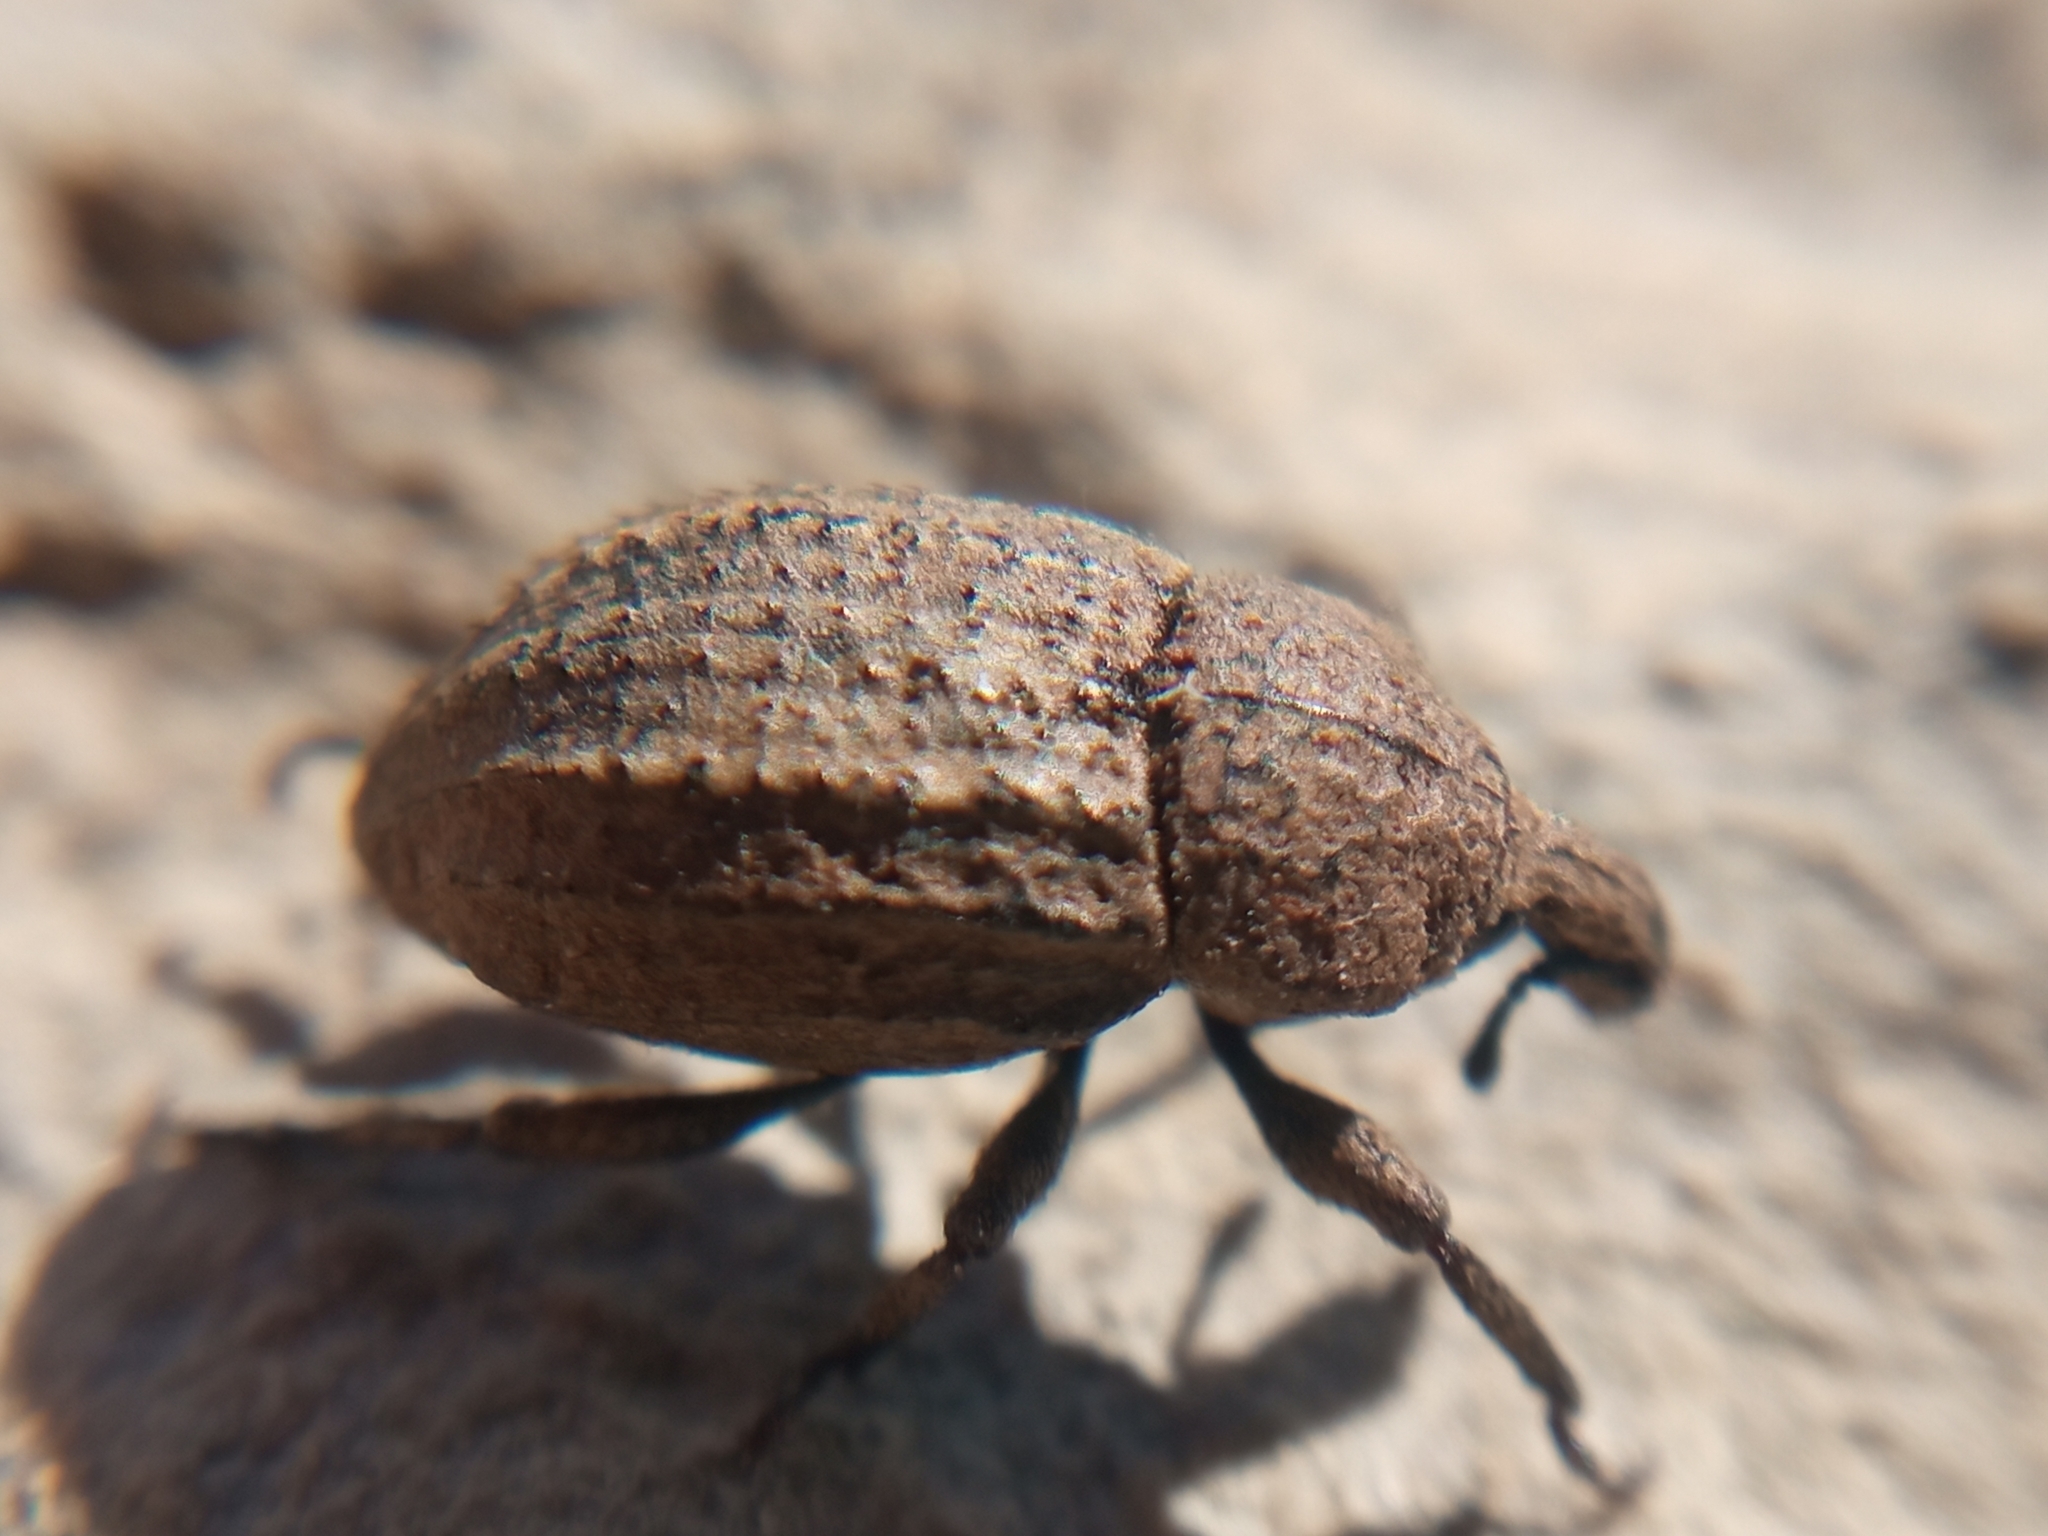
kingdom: Animalia
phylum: Arthropoda
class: Insecta
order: Coleoptera
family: Curculionidae
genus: Minyops
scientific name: Minyops carinatus
